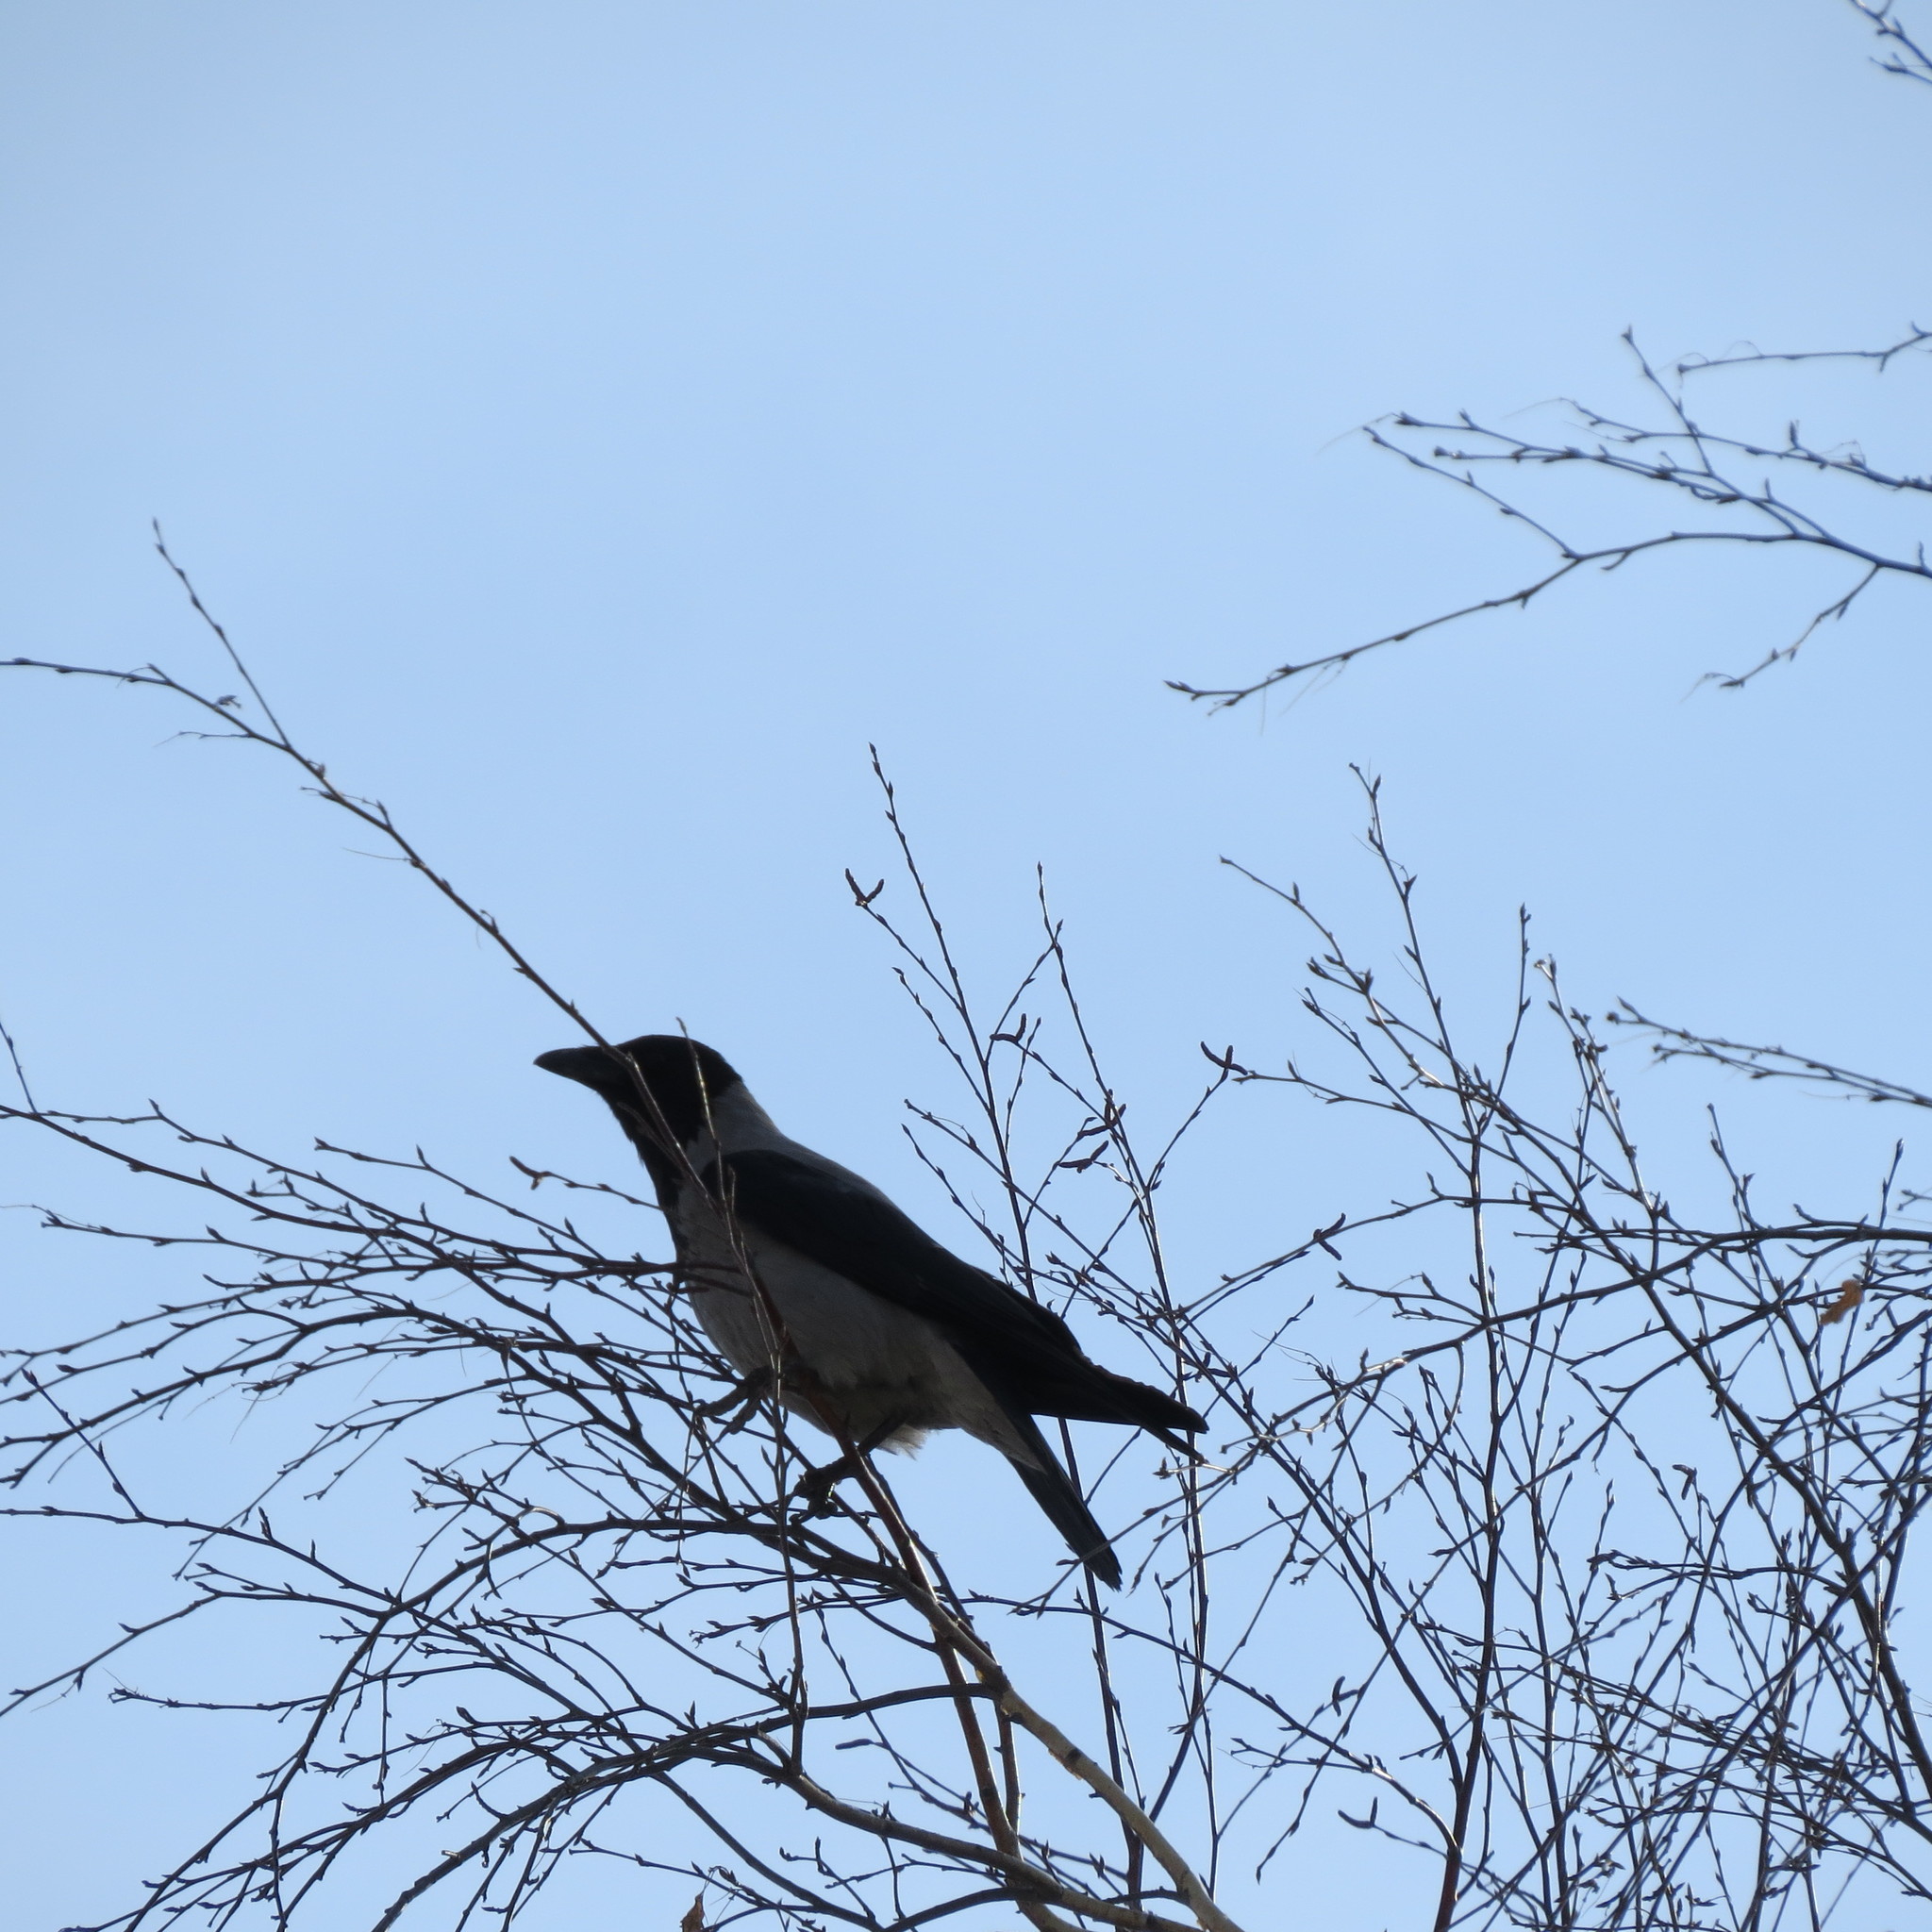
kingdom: Animalia
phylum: Chordata
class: Aves
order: Passeriformes
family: Corvidae
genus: Corvus
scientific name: Corvus cornix
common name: Hooded crow
